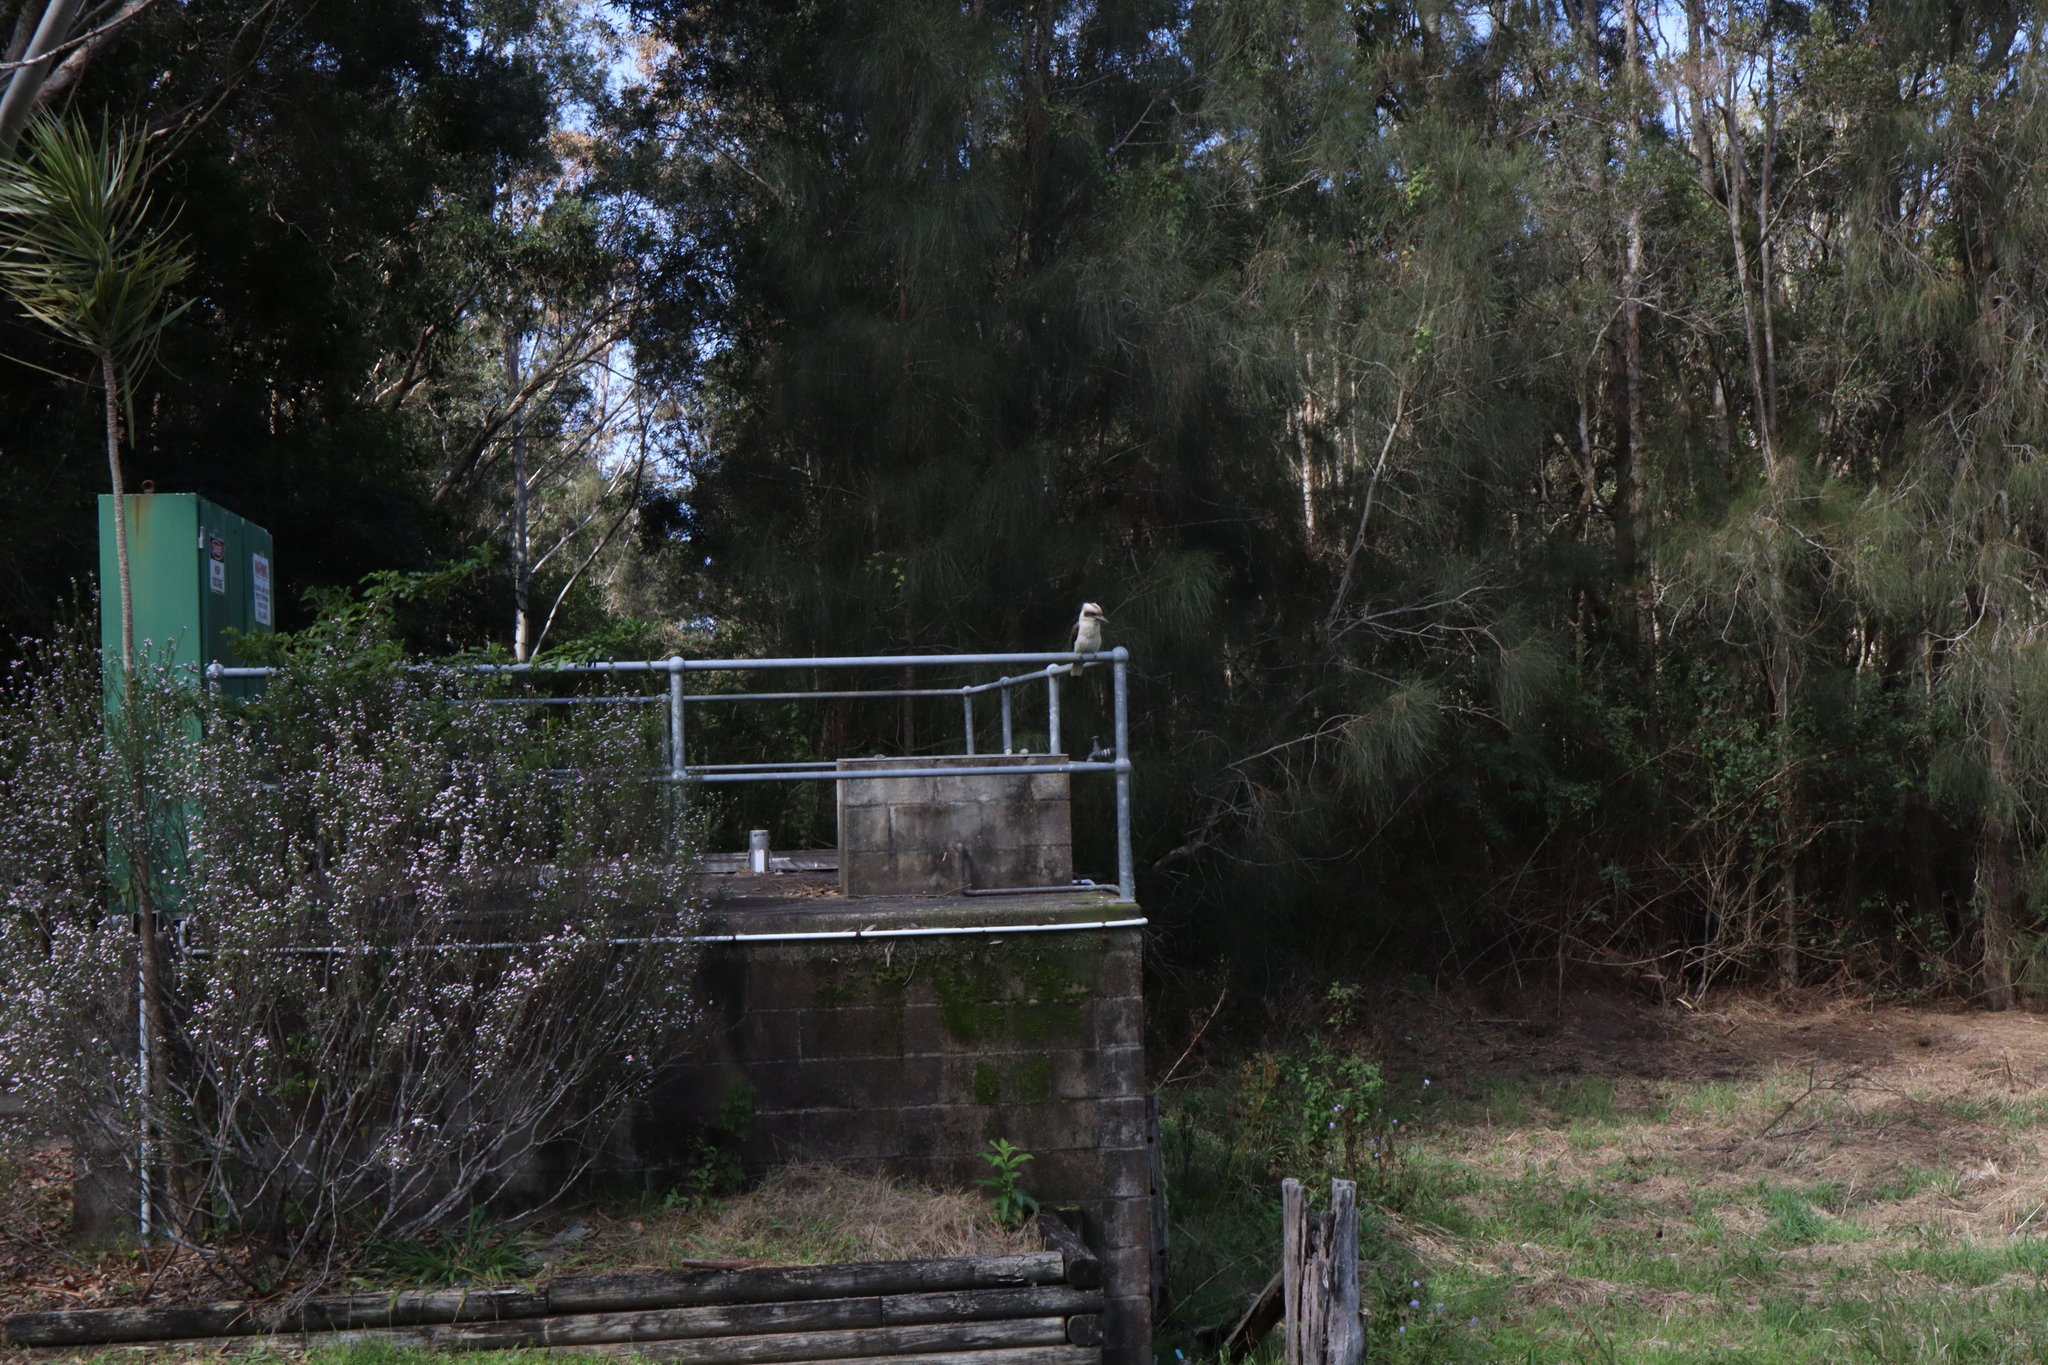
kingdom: Animalia
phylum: Chordata
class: Aves
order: Coraciiformes
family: Alcedinidae
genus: Dacelo
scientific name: Dacelo novaeguineae
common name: Laughing kookaburra
